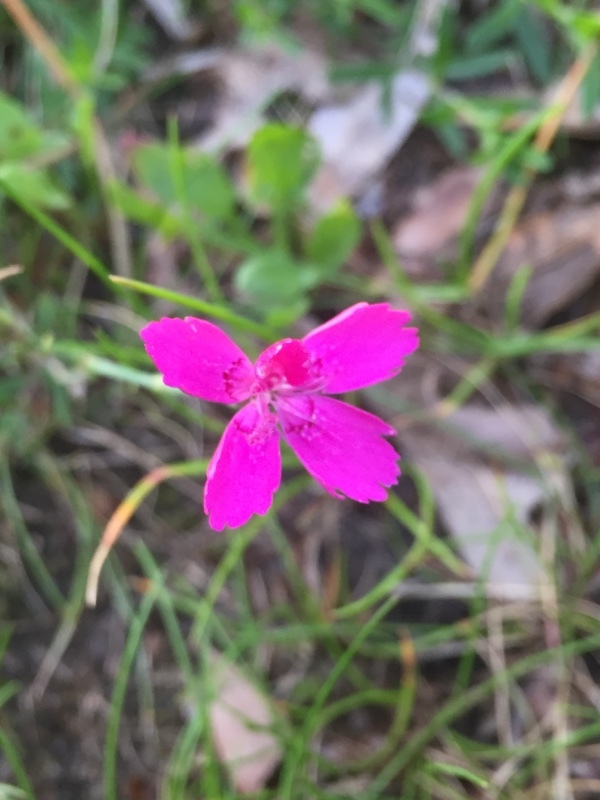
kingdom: Plantae
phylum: Tracheophyta
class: Magnoliopsida
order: Caryophyllales
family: Caryophyllaceae
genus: Dianthus
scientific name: Dianthus deltoides
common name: Maiden pink
